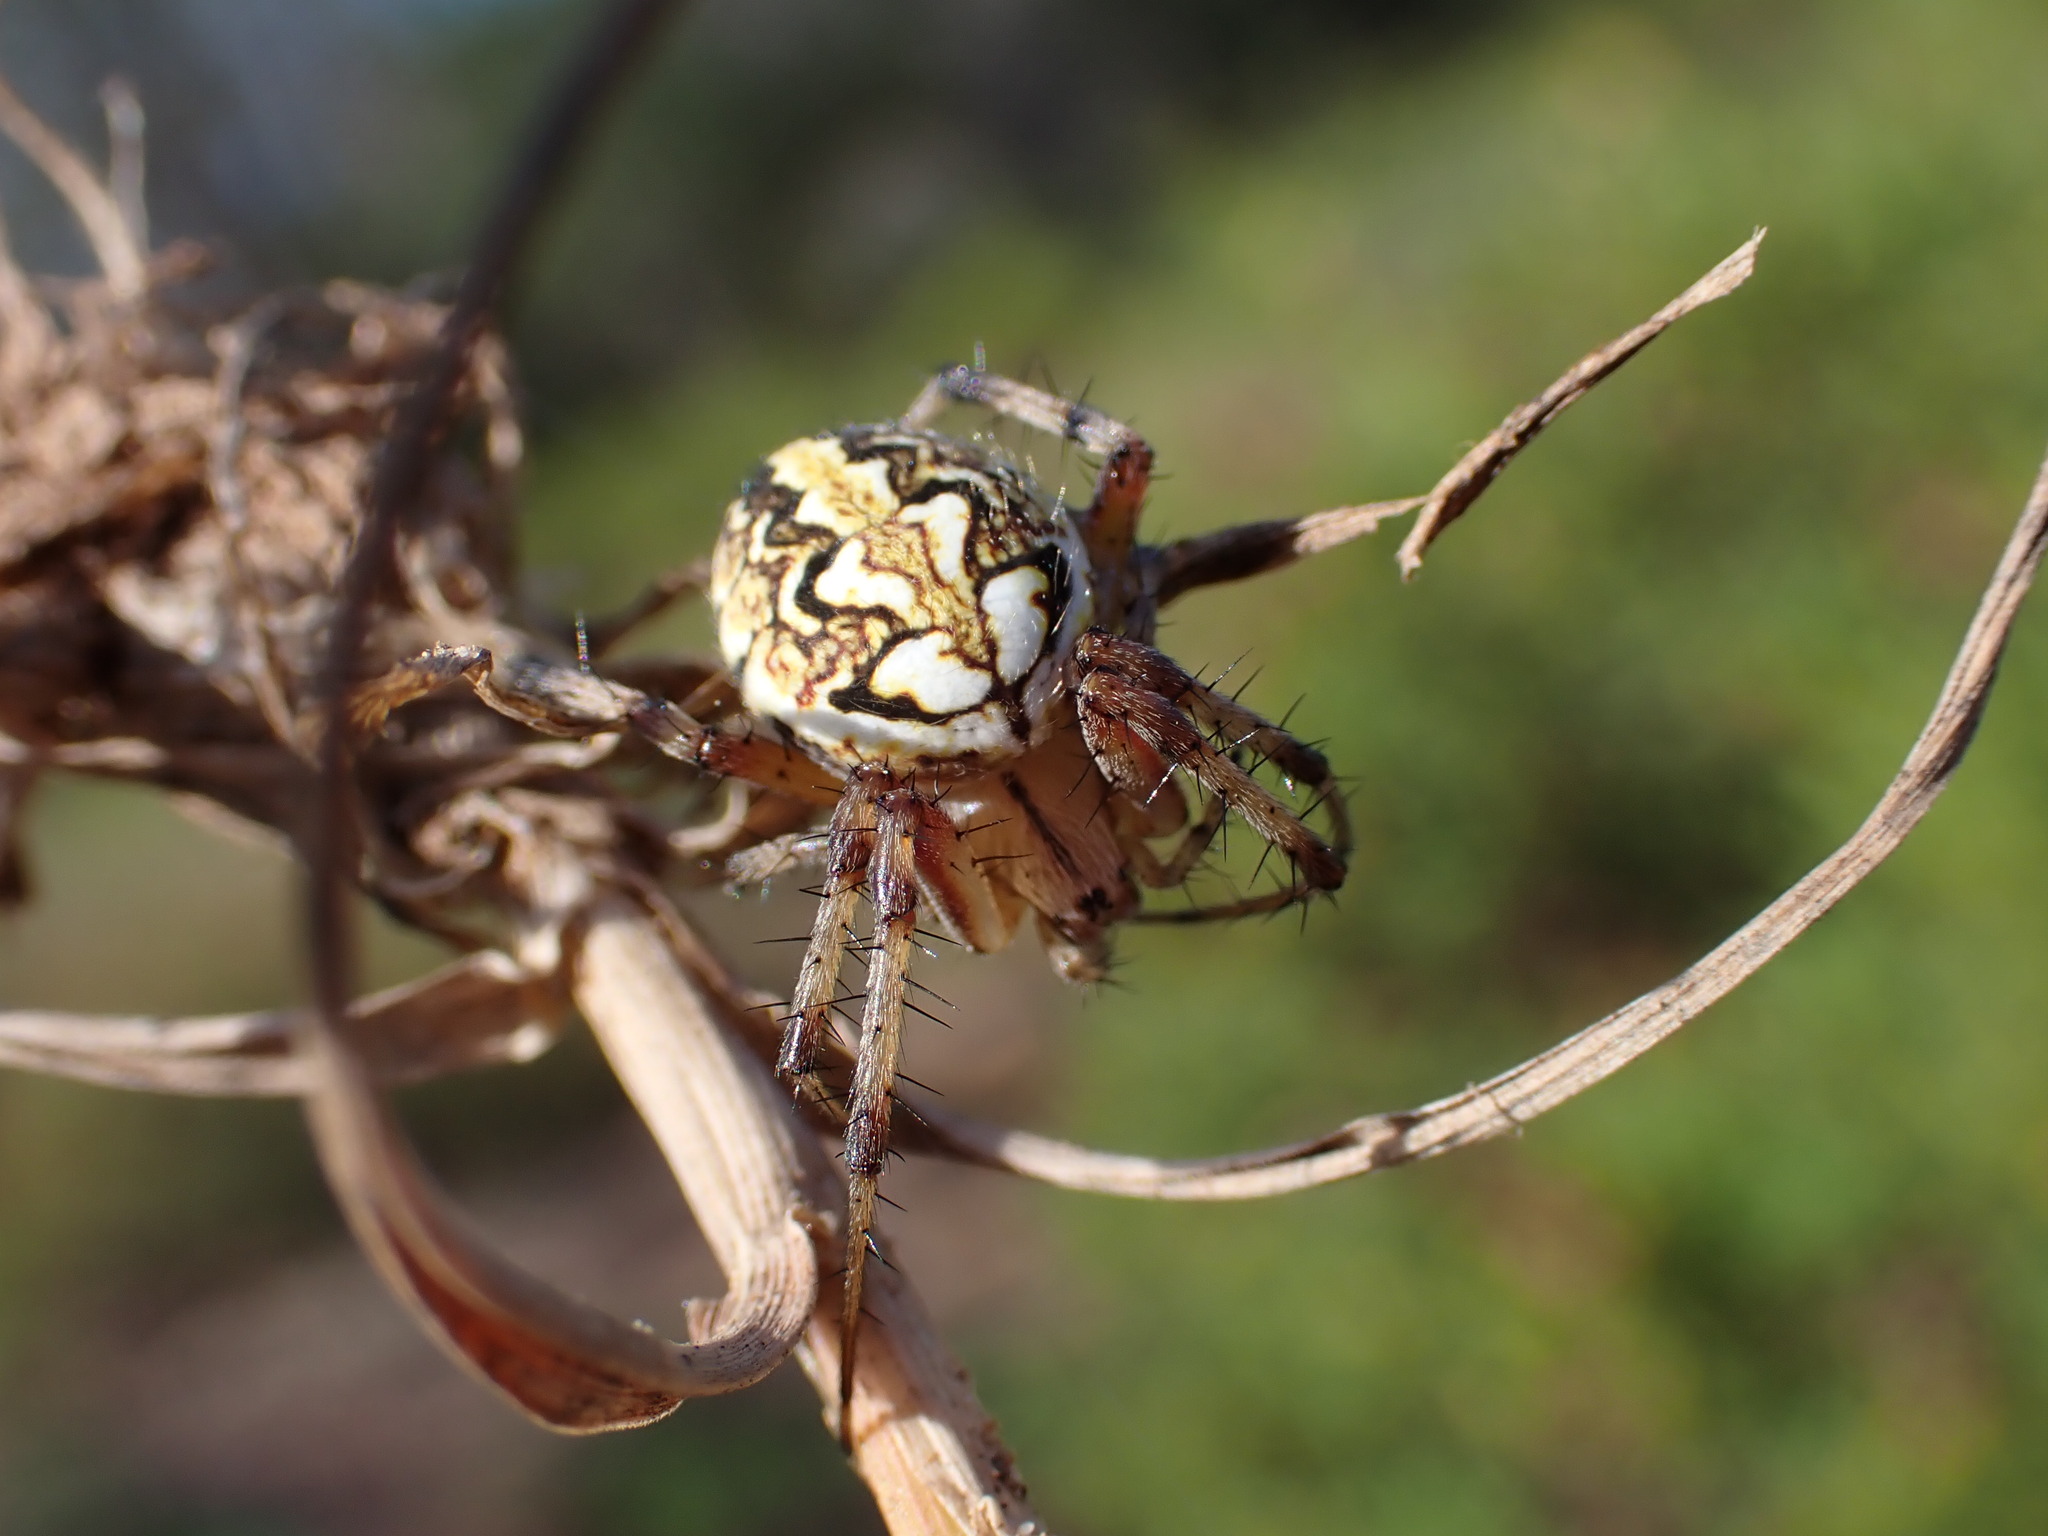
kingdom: Animalia
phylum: Arthropoda
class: Arachnida
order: Araneae
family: Araneidae
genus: Neoscona
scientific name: Neoscona adianta
